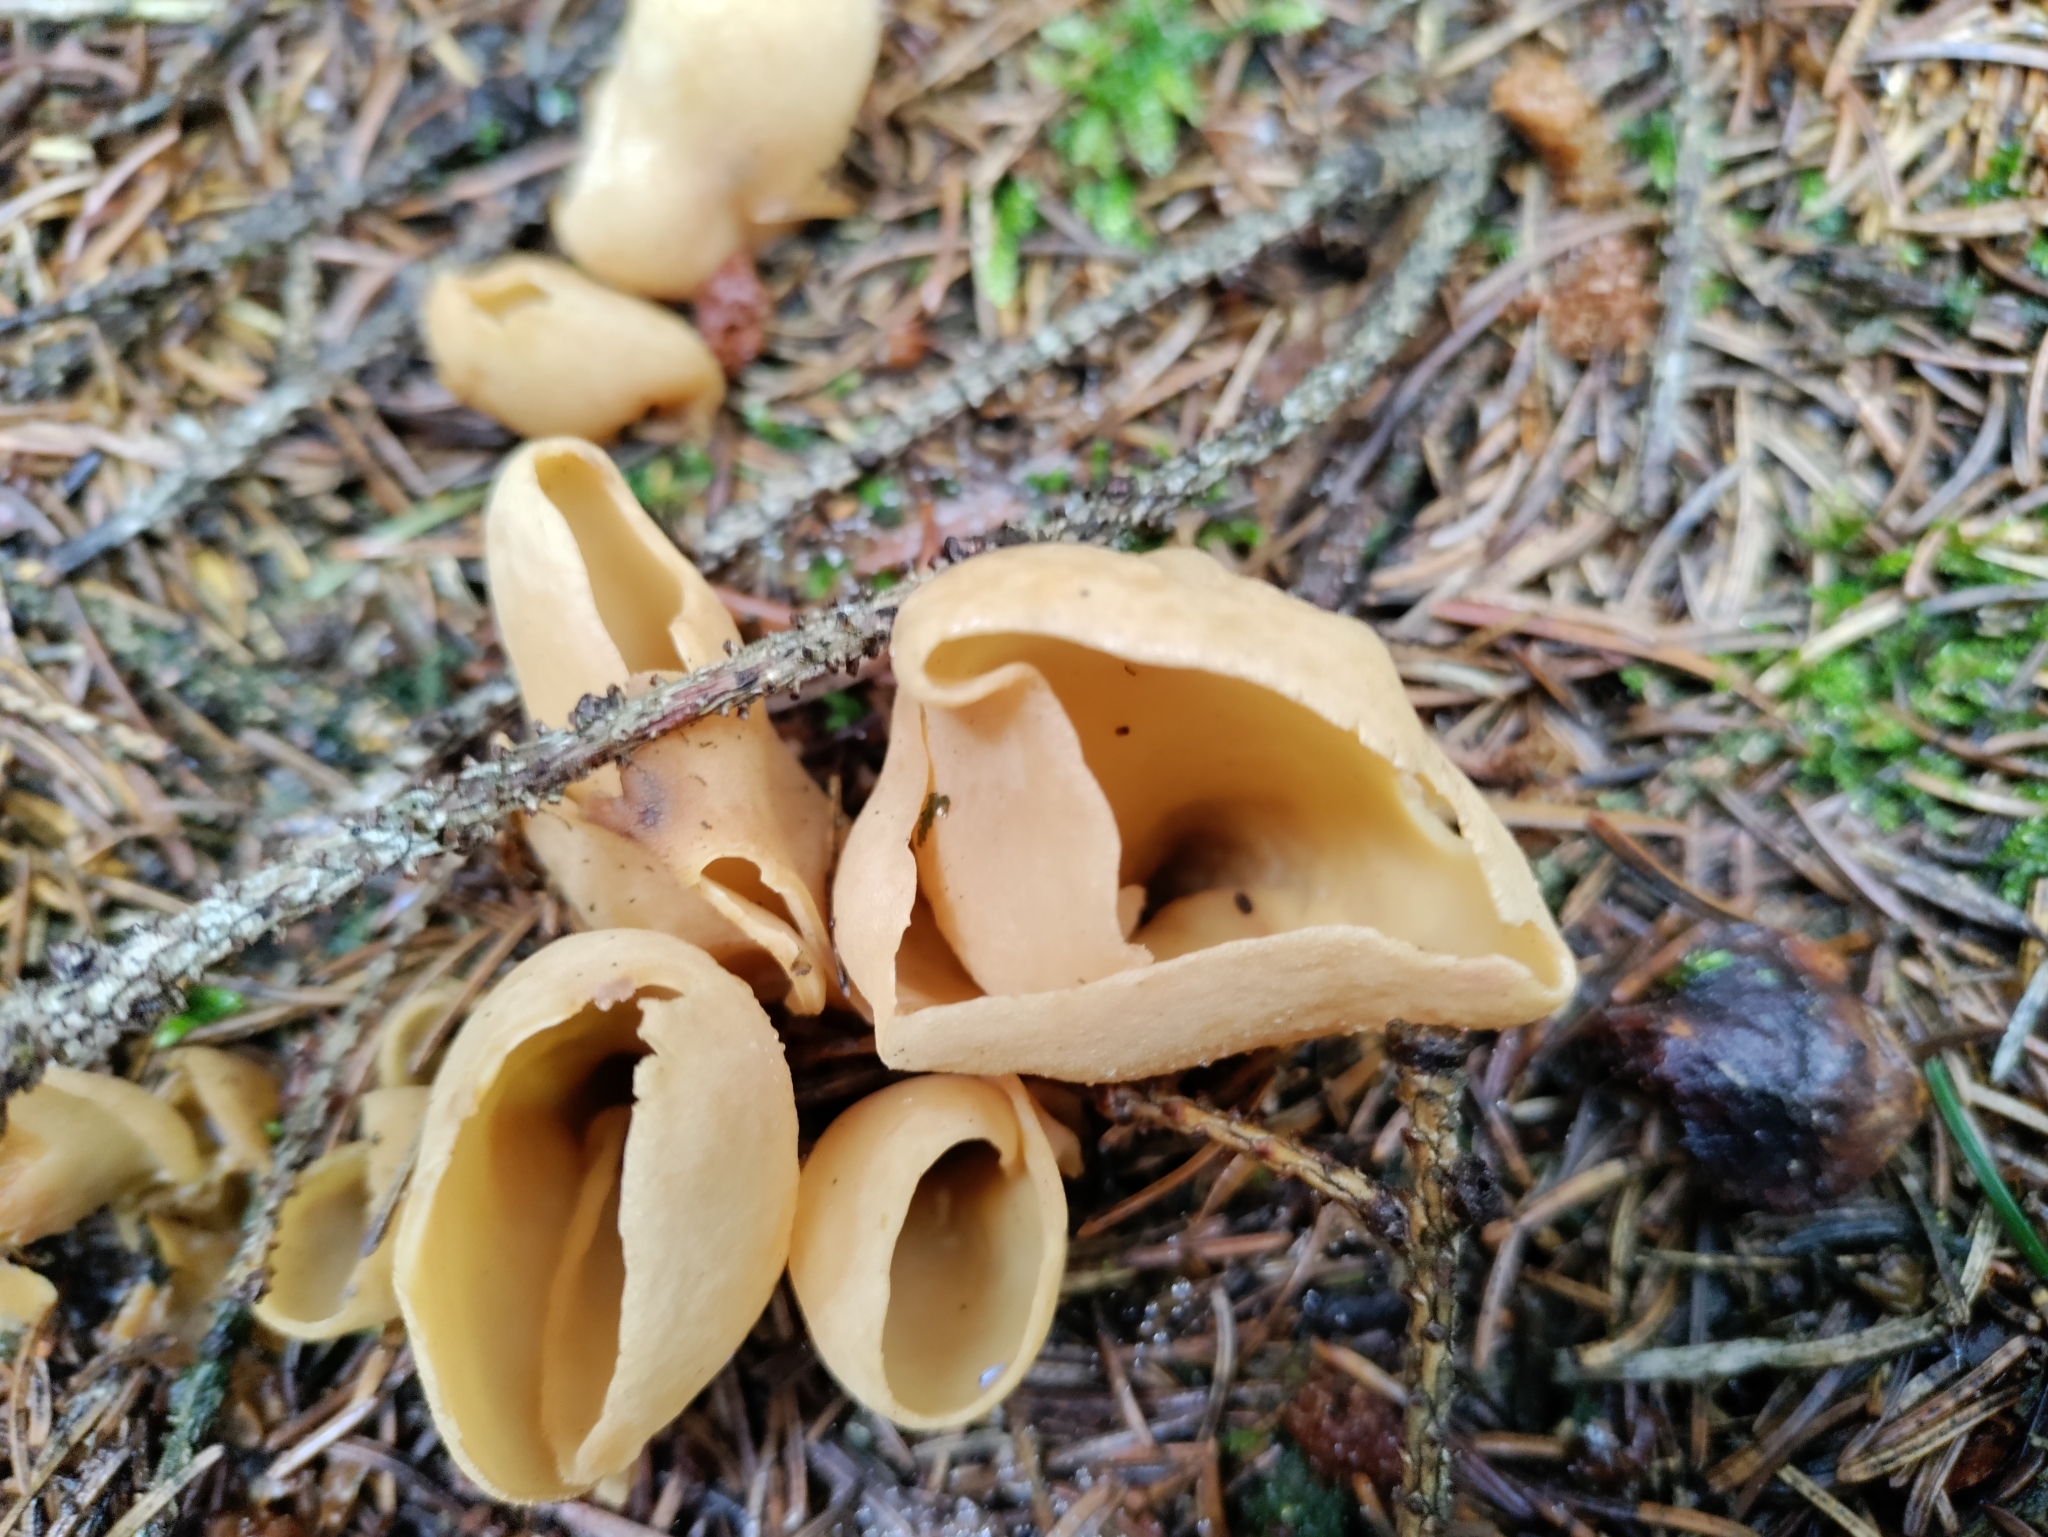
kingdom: Fungi
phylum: Ascomycota
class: Pezizomycetes
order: Pezizales
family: Otideaceae
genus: Otidea
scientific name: Otidea onotica
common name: Hare's ear
